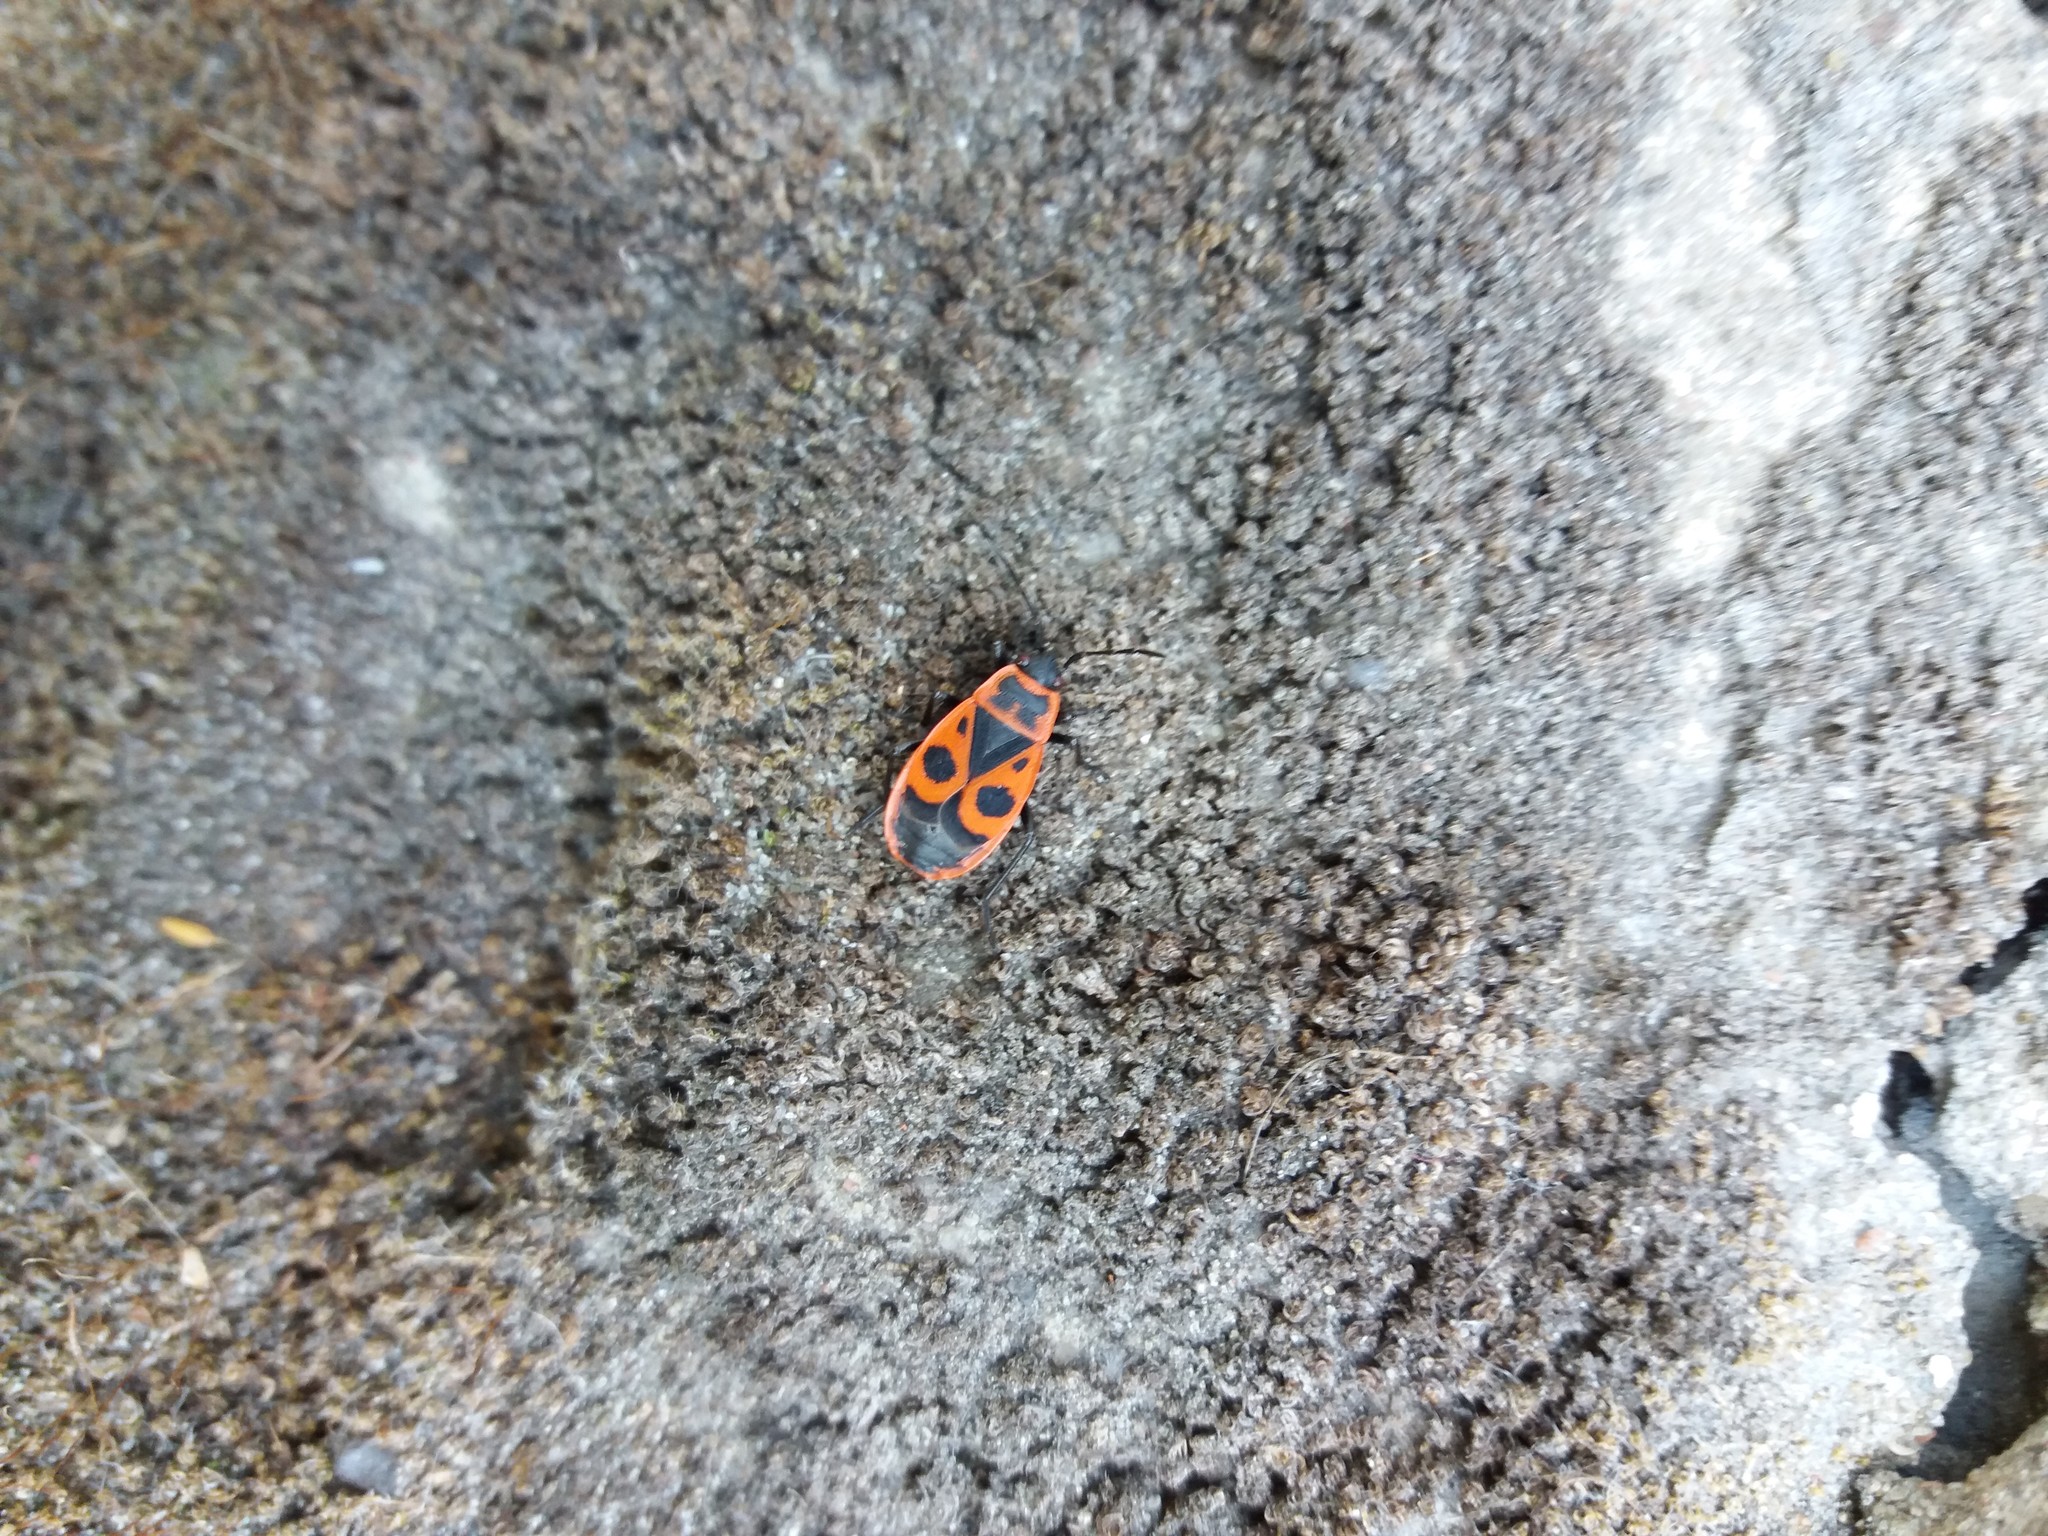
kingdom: Animalia
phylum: Arthropoda
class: Insecta
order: Hemiptera
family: Pyrrhocoridae
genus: Pyrrhocoris
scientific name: Pyrrhocoris apterus
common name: Firebug
